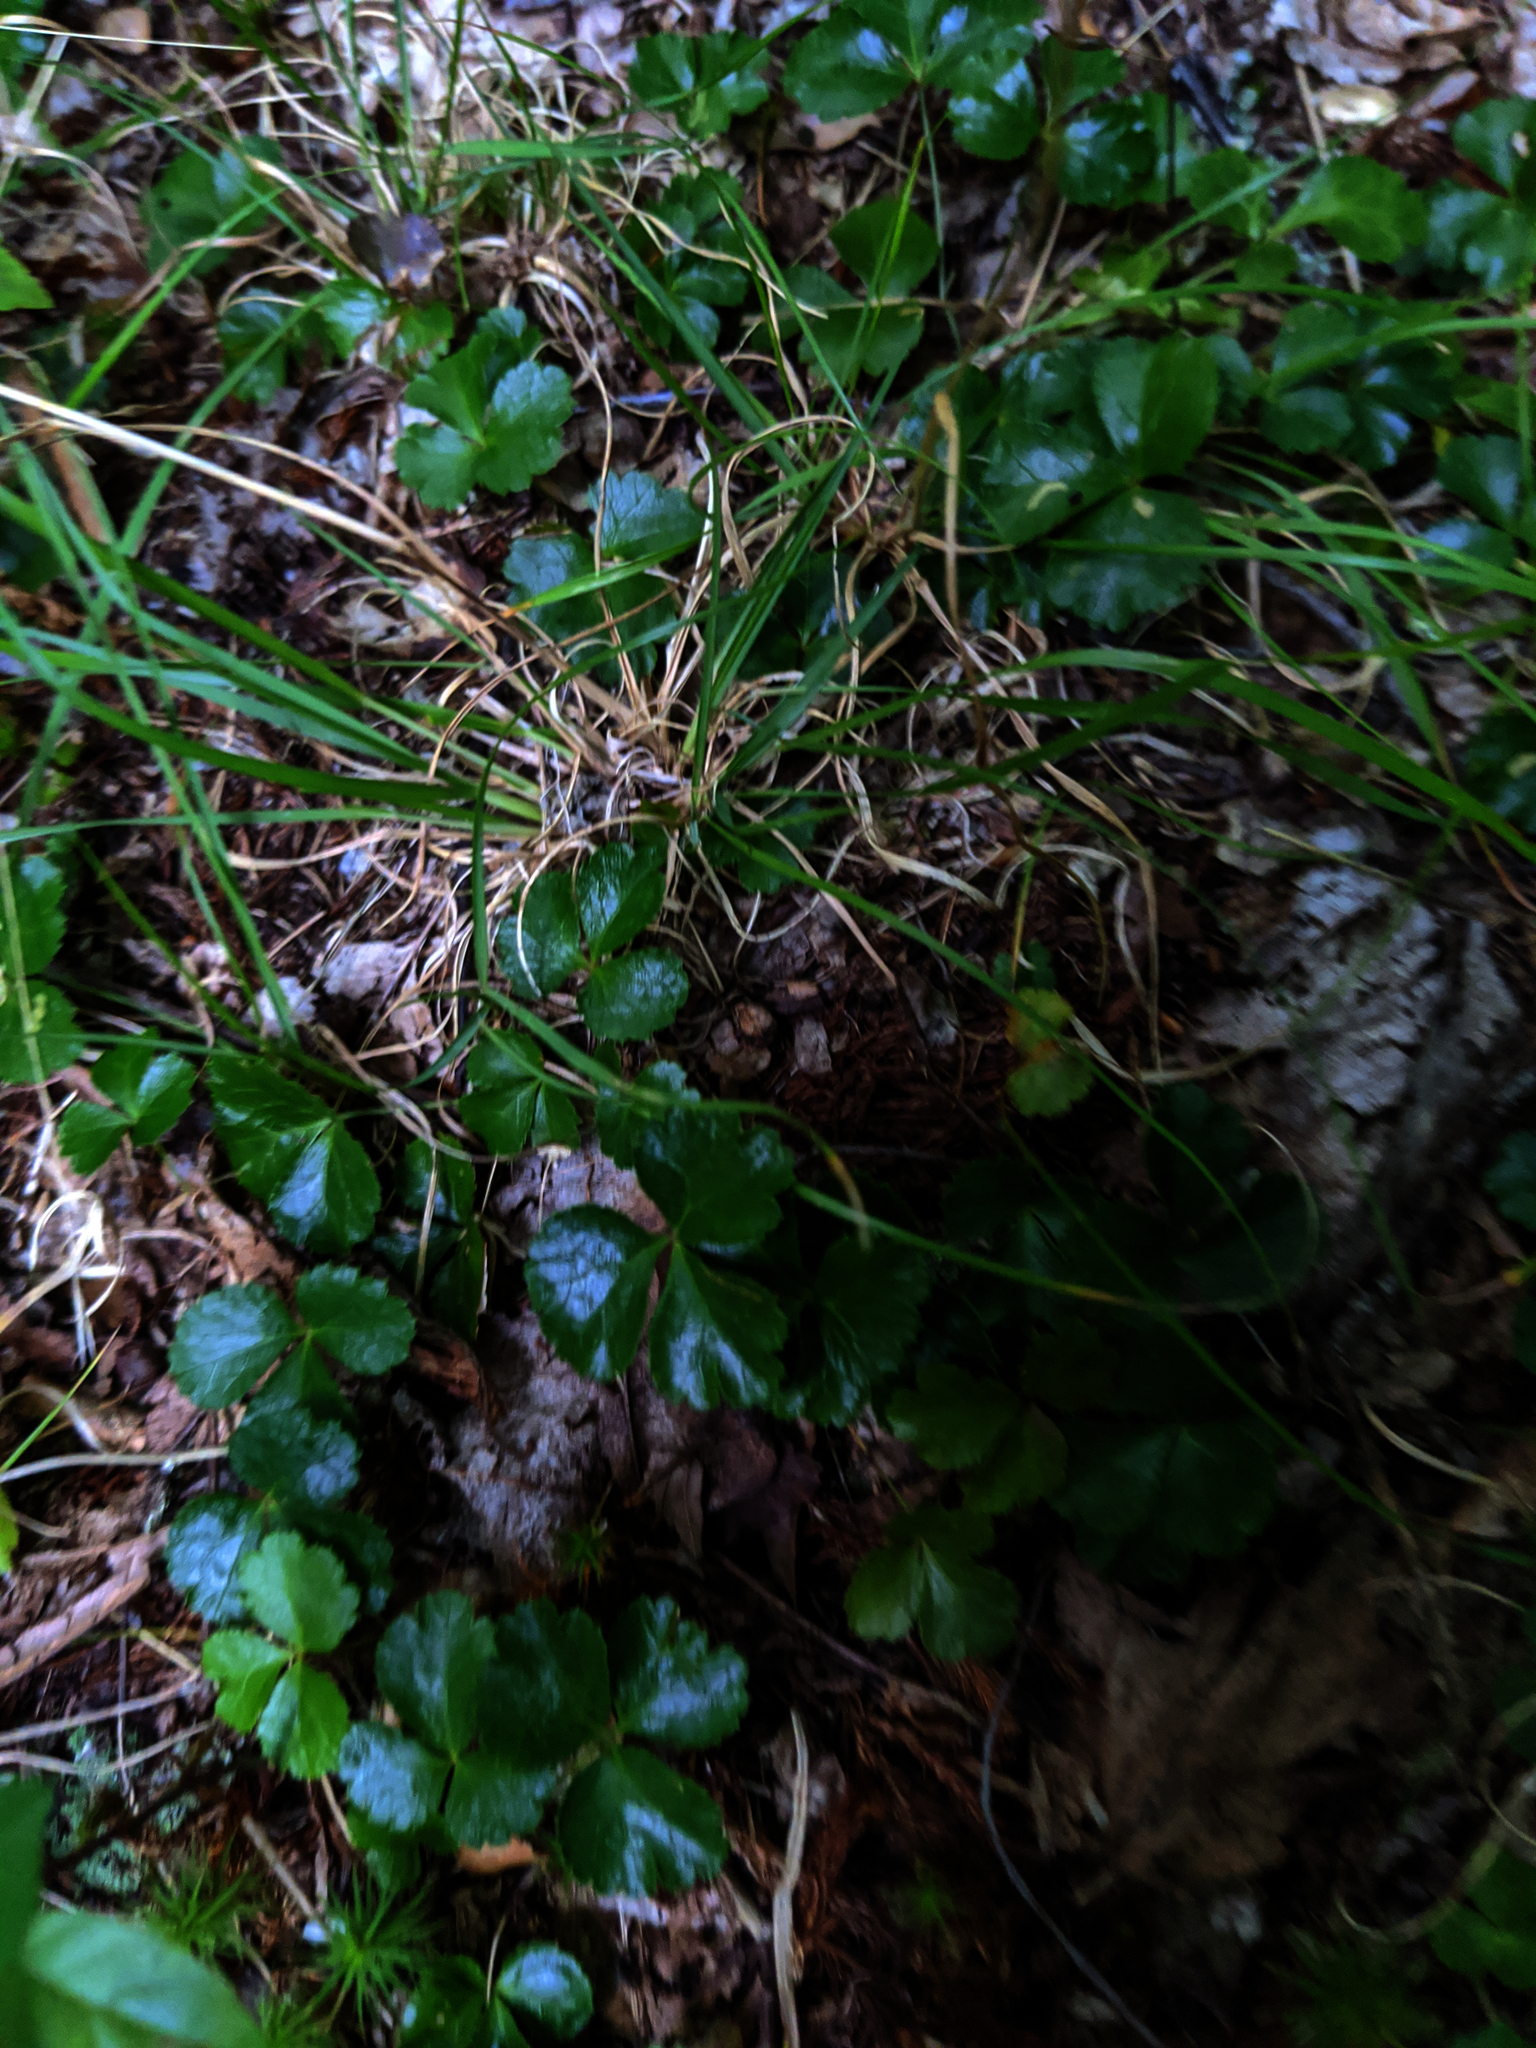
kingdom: Plantae
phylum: Tracheophyta
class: Magnoliopsida
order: Ranunculales
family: Ranunculaceae
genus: Coptis
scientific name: Coptis trifolia
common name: Canker-root
